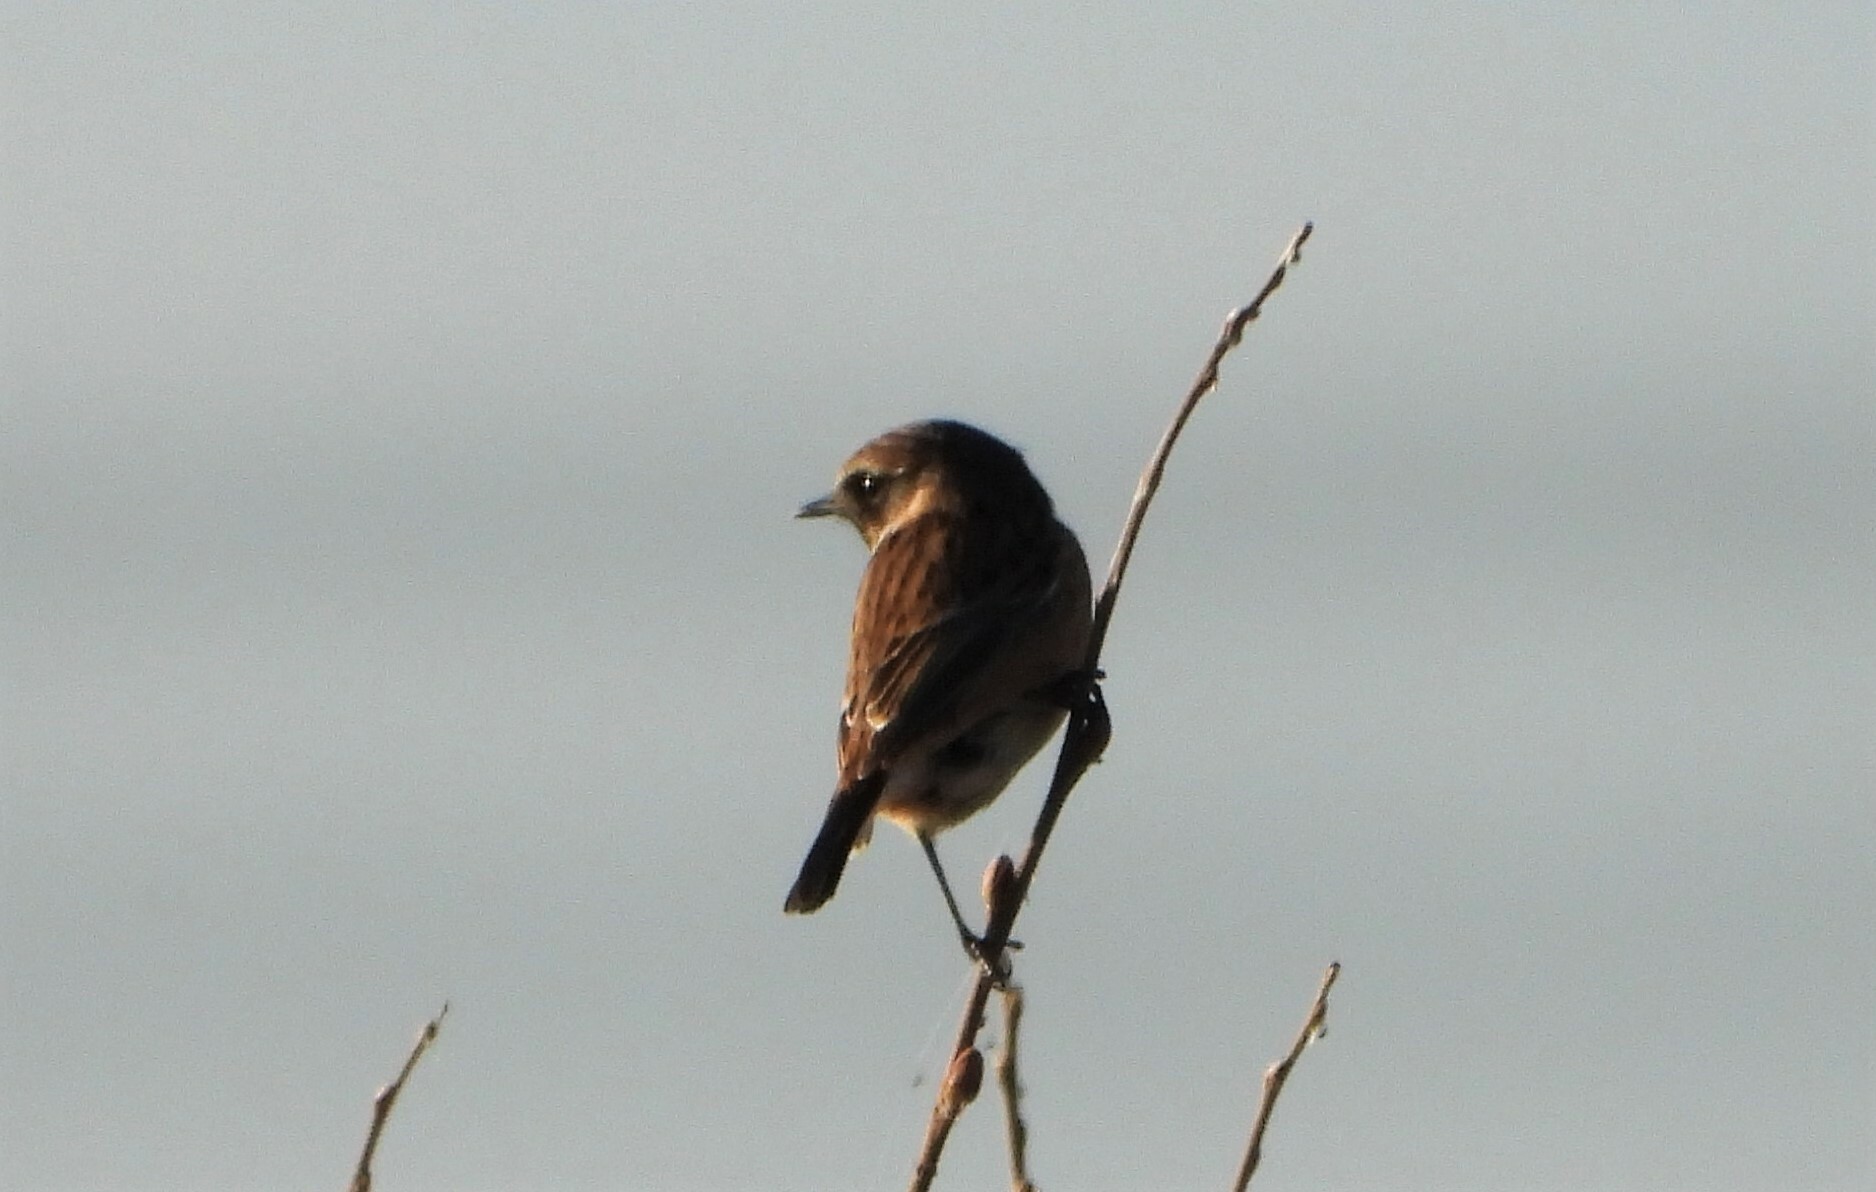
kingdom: Animalia
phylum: Chordata
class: Aves
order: Passeriformes
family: Muscicapidae
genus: Saxicola
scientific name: Saxicola rubicola
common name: European stonechat
